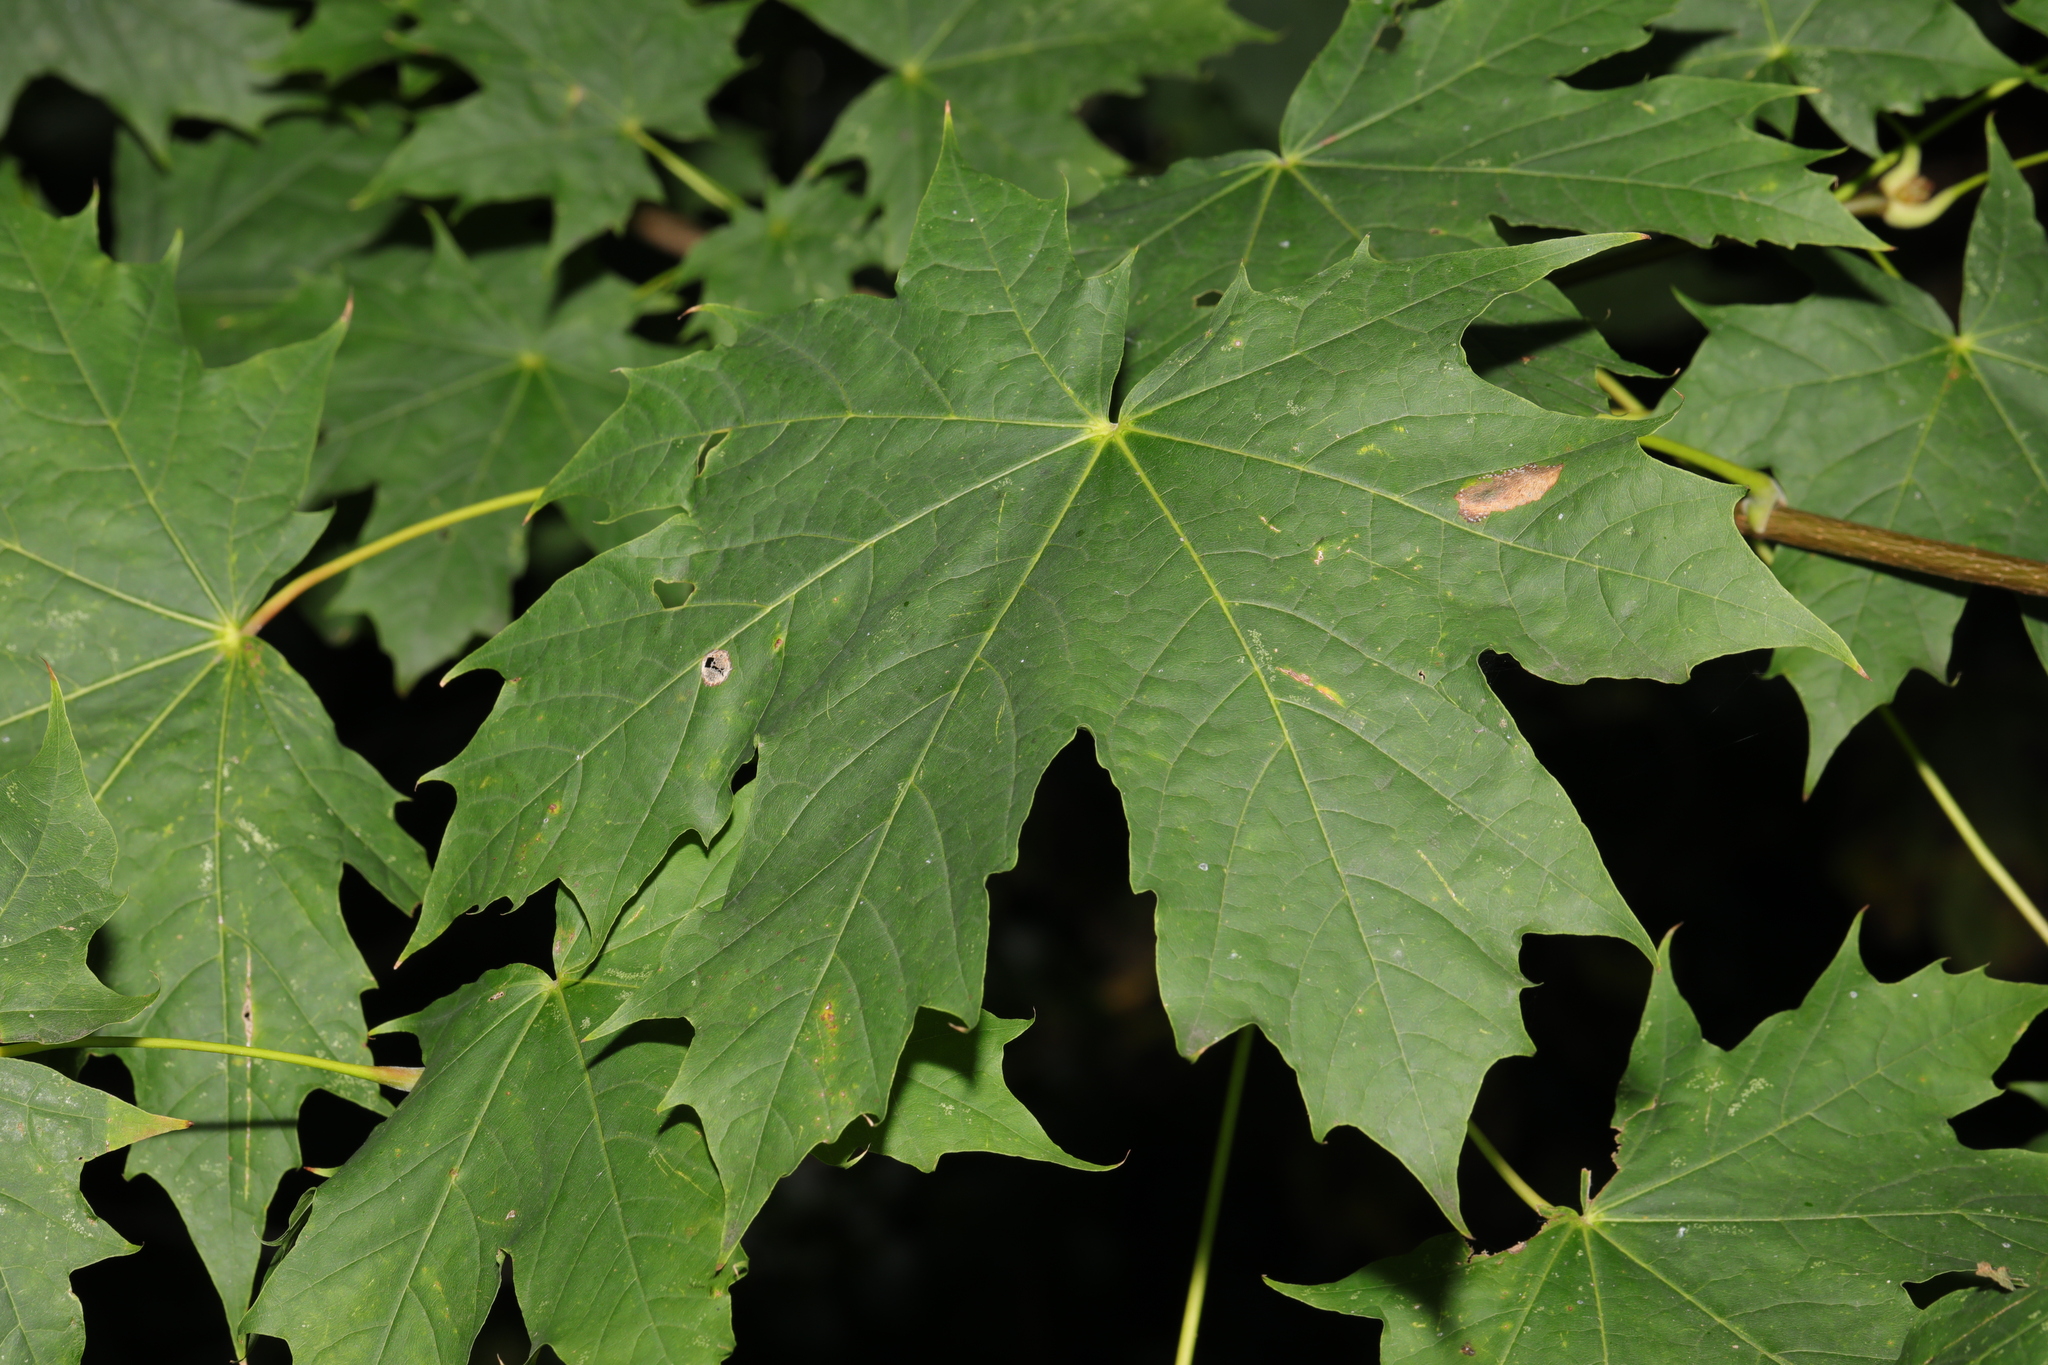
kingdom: Plantae
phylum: Tracheophyta
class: Magnoliopsida
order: Sapindales
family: Sapindaceae
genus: Acer
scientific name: Acer platanoides
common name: Norway maple
